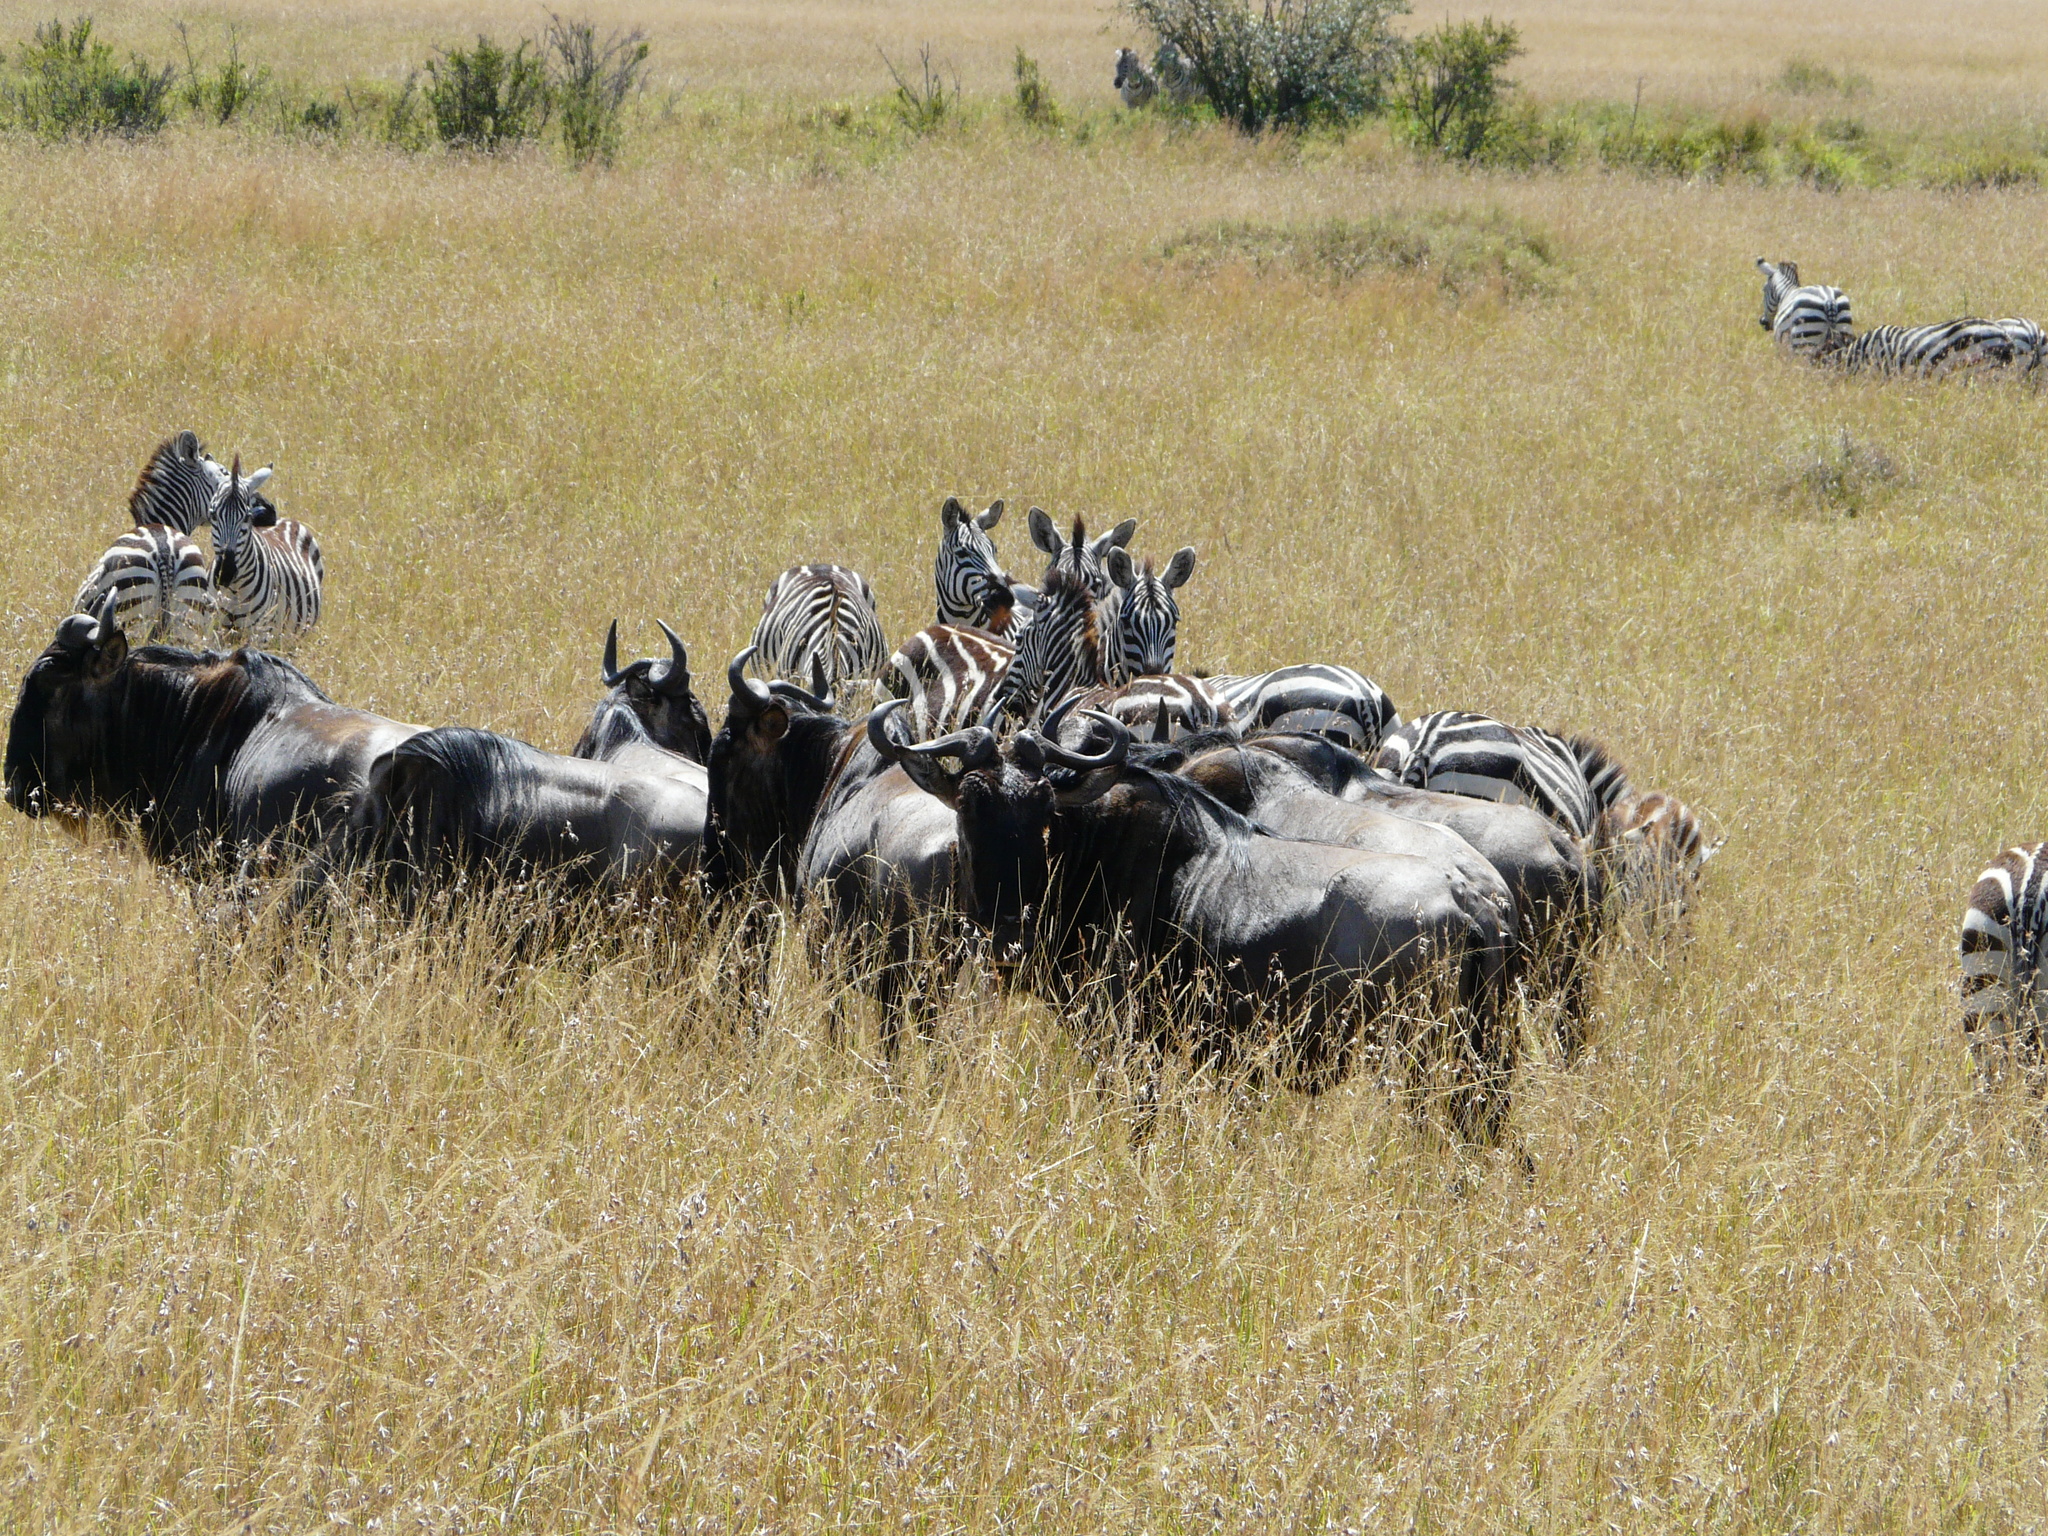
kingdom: Animalia
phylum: Chordata
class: Mammalia
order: Artiodactyla
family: Bovidae
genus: Connochaetes
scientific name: Connochaetes taurinus
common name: Blue wildebeest
